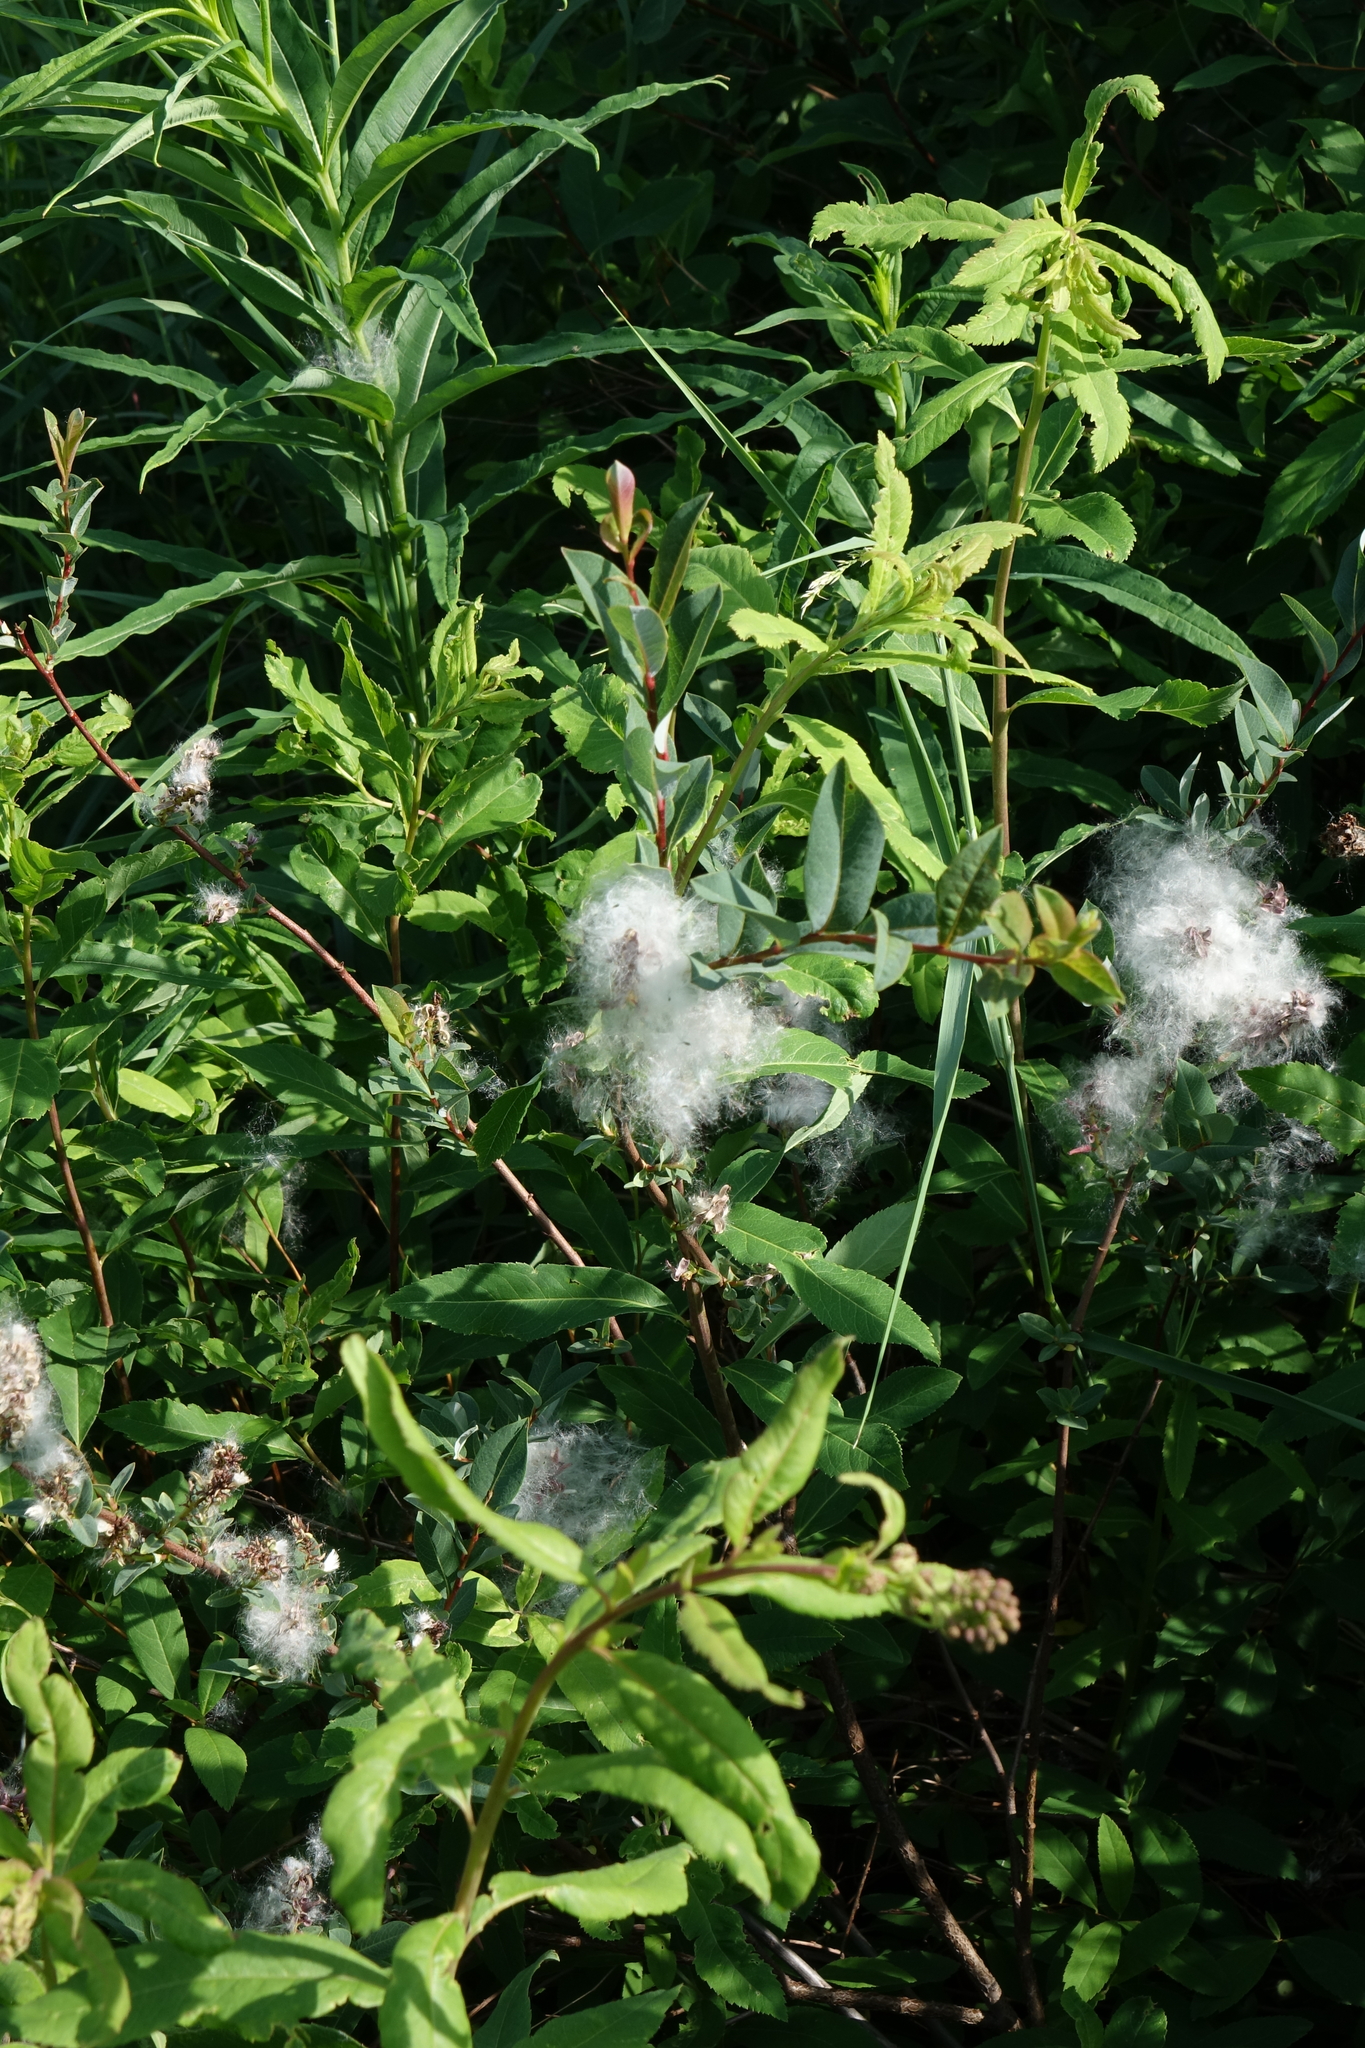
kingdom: Plantae
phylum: Tracheophyta
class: Magnoliopsida
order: Malpighiales
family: Salicaceae
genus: Salix
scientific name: Salix myrtilloides
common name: Myrtle-leaved willow
